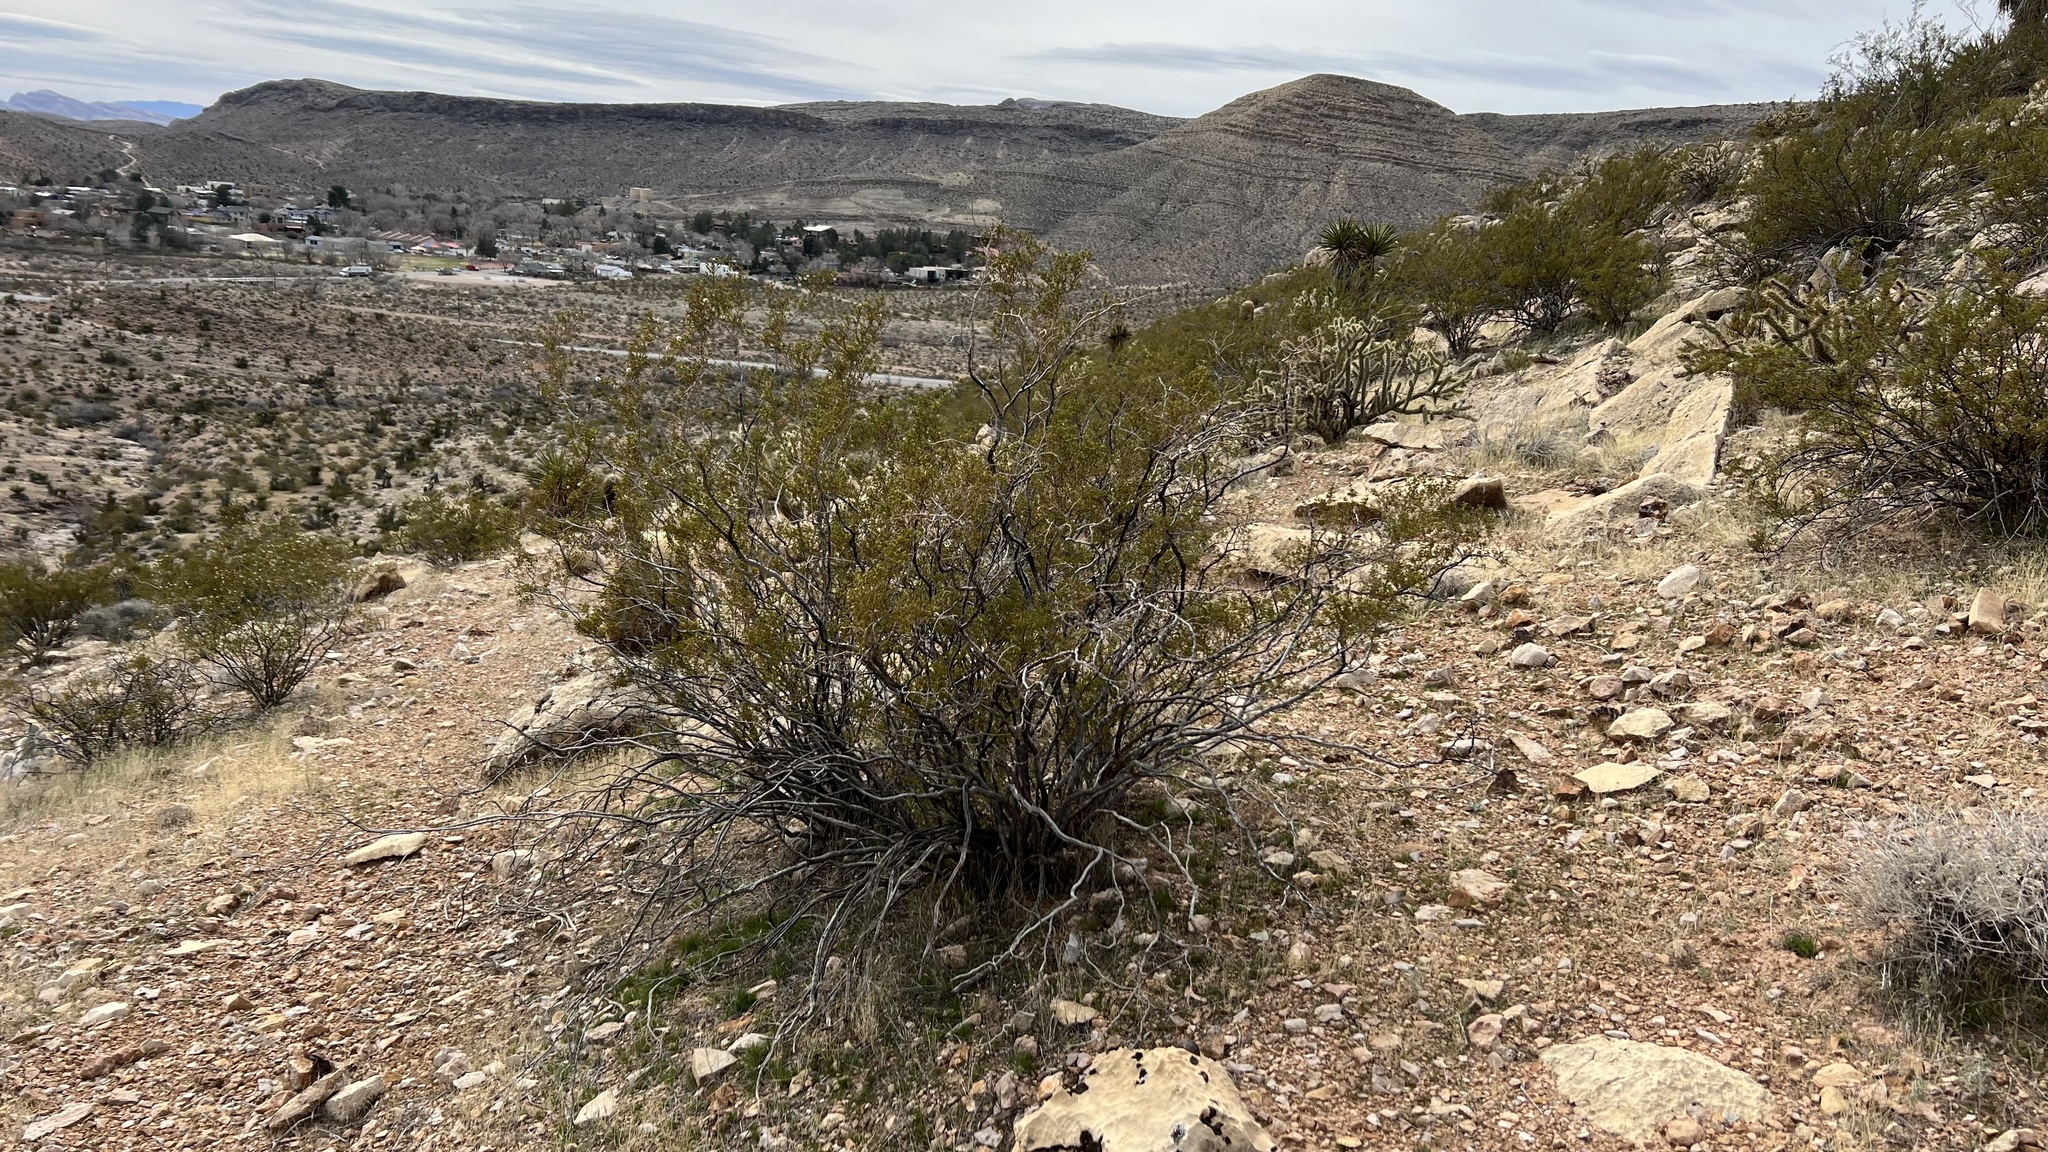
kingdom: Plantae
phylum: Tracheophyta
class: Magnoliopsida
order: Zygophyllales
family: Zygophyllaceae
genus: Larrea
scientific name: Larrea tridentata
